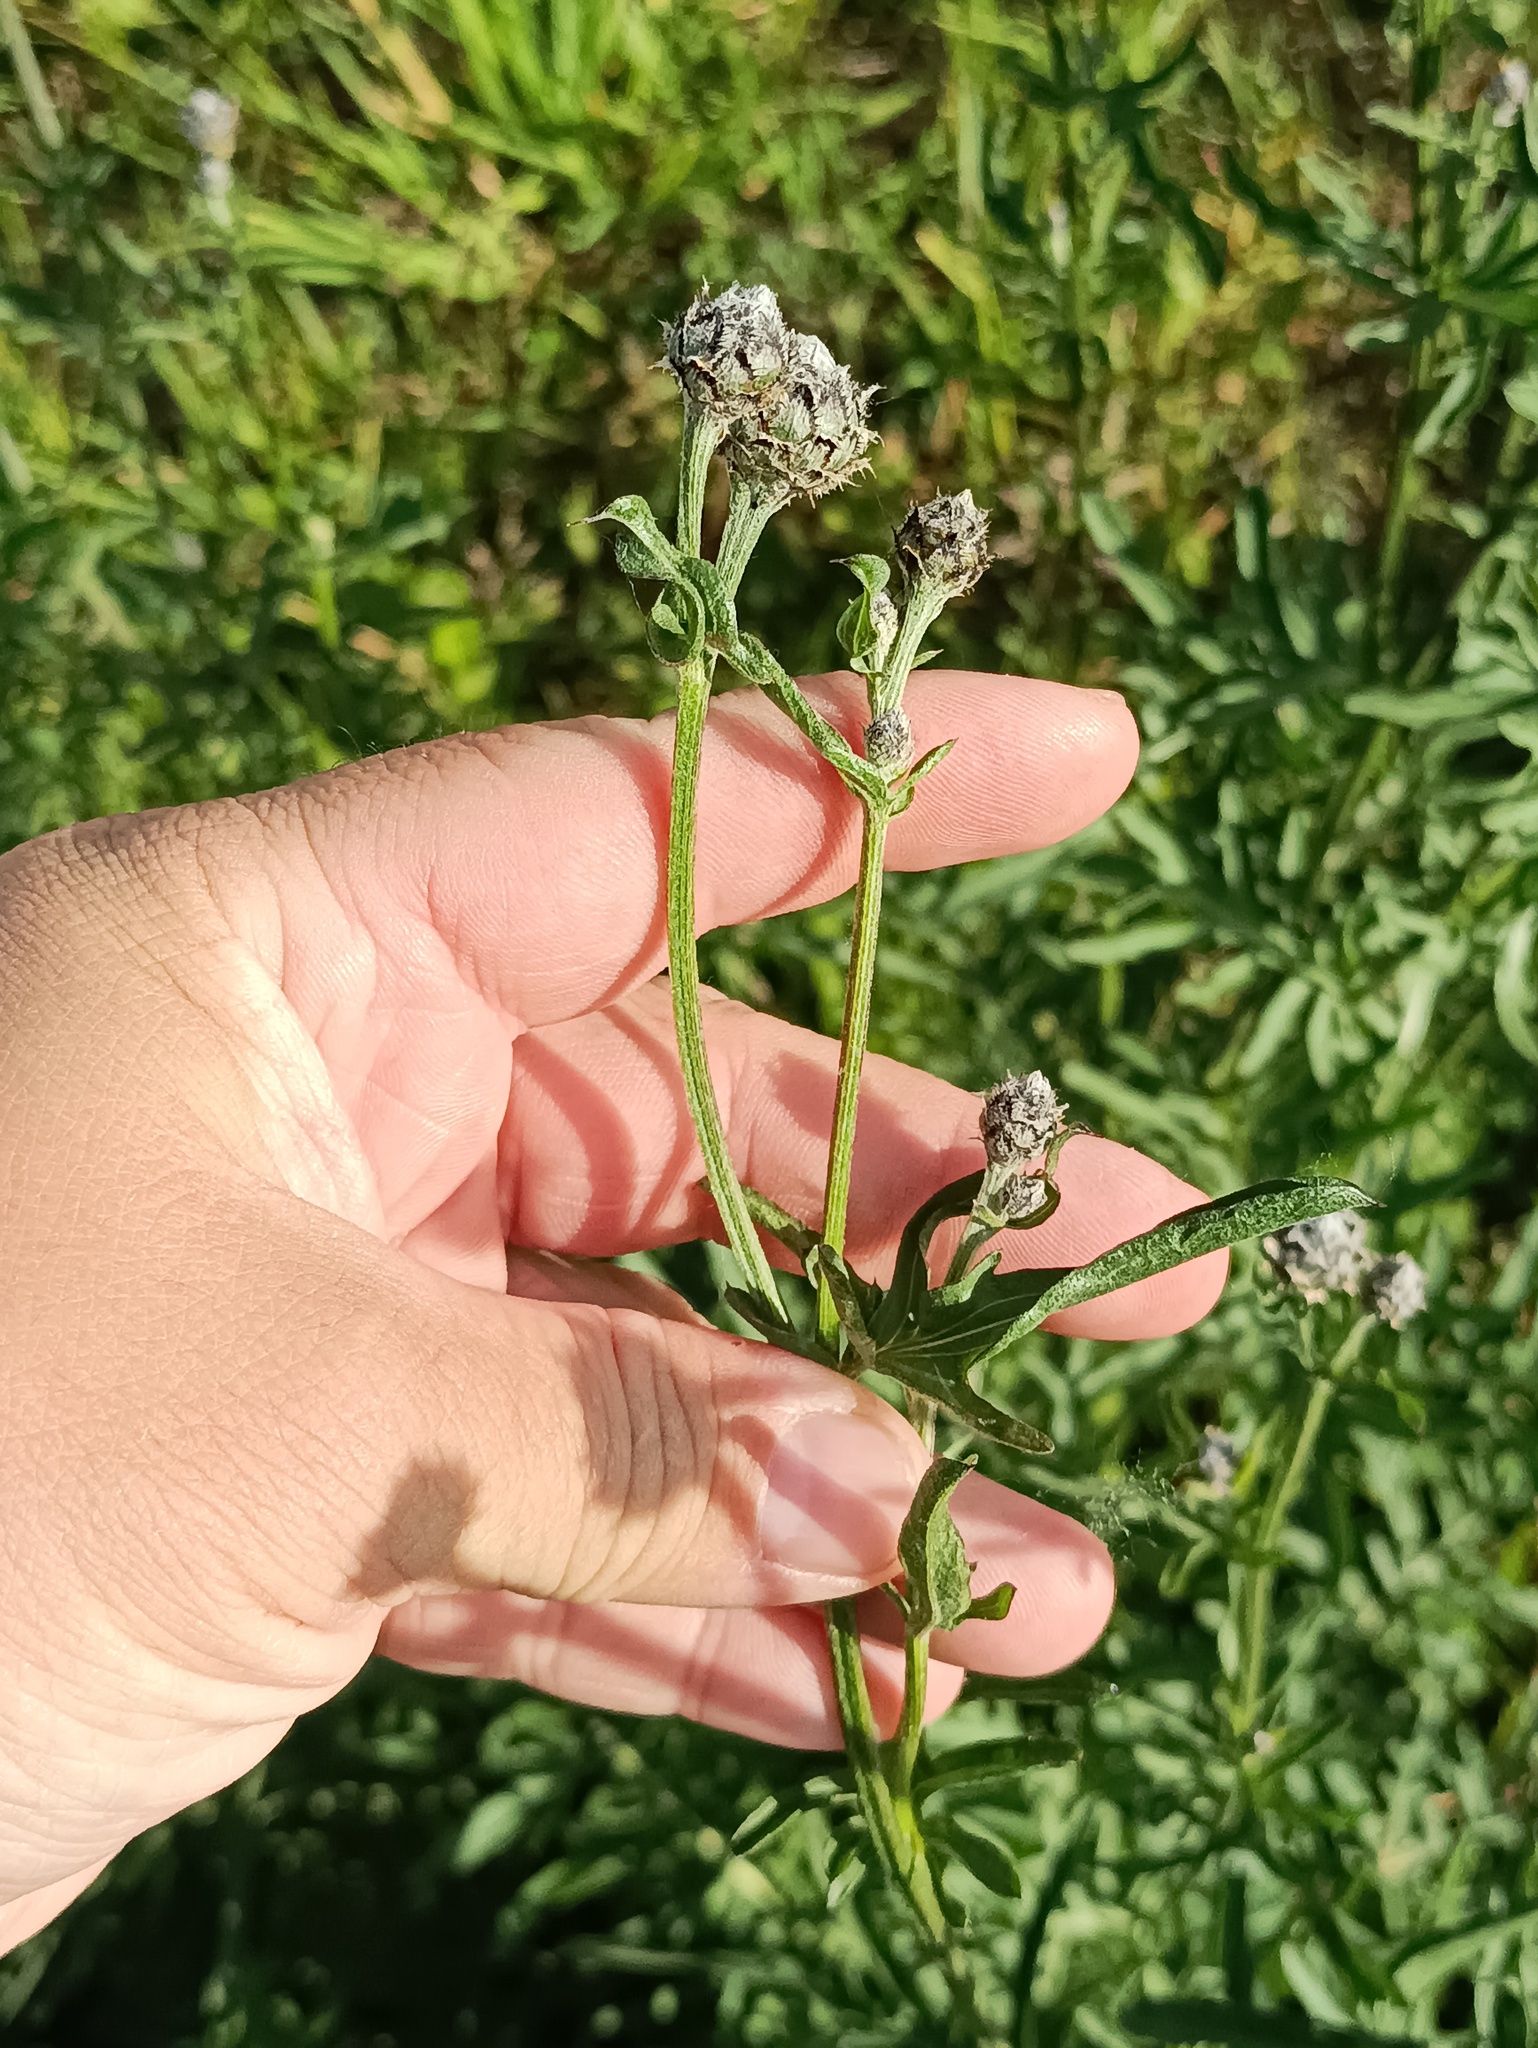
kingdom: Plantae
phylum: Tracheophyta
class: Magnoliopsida
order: Asterales
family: Asteraceae
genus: Centaurea
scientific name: Centaurea scabiosa
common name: Greater knapweed
